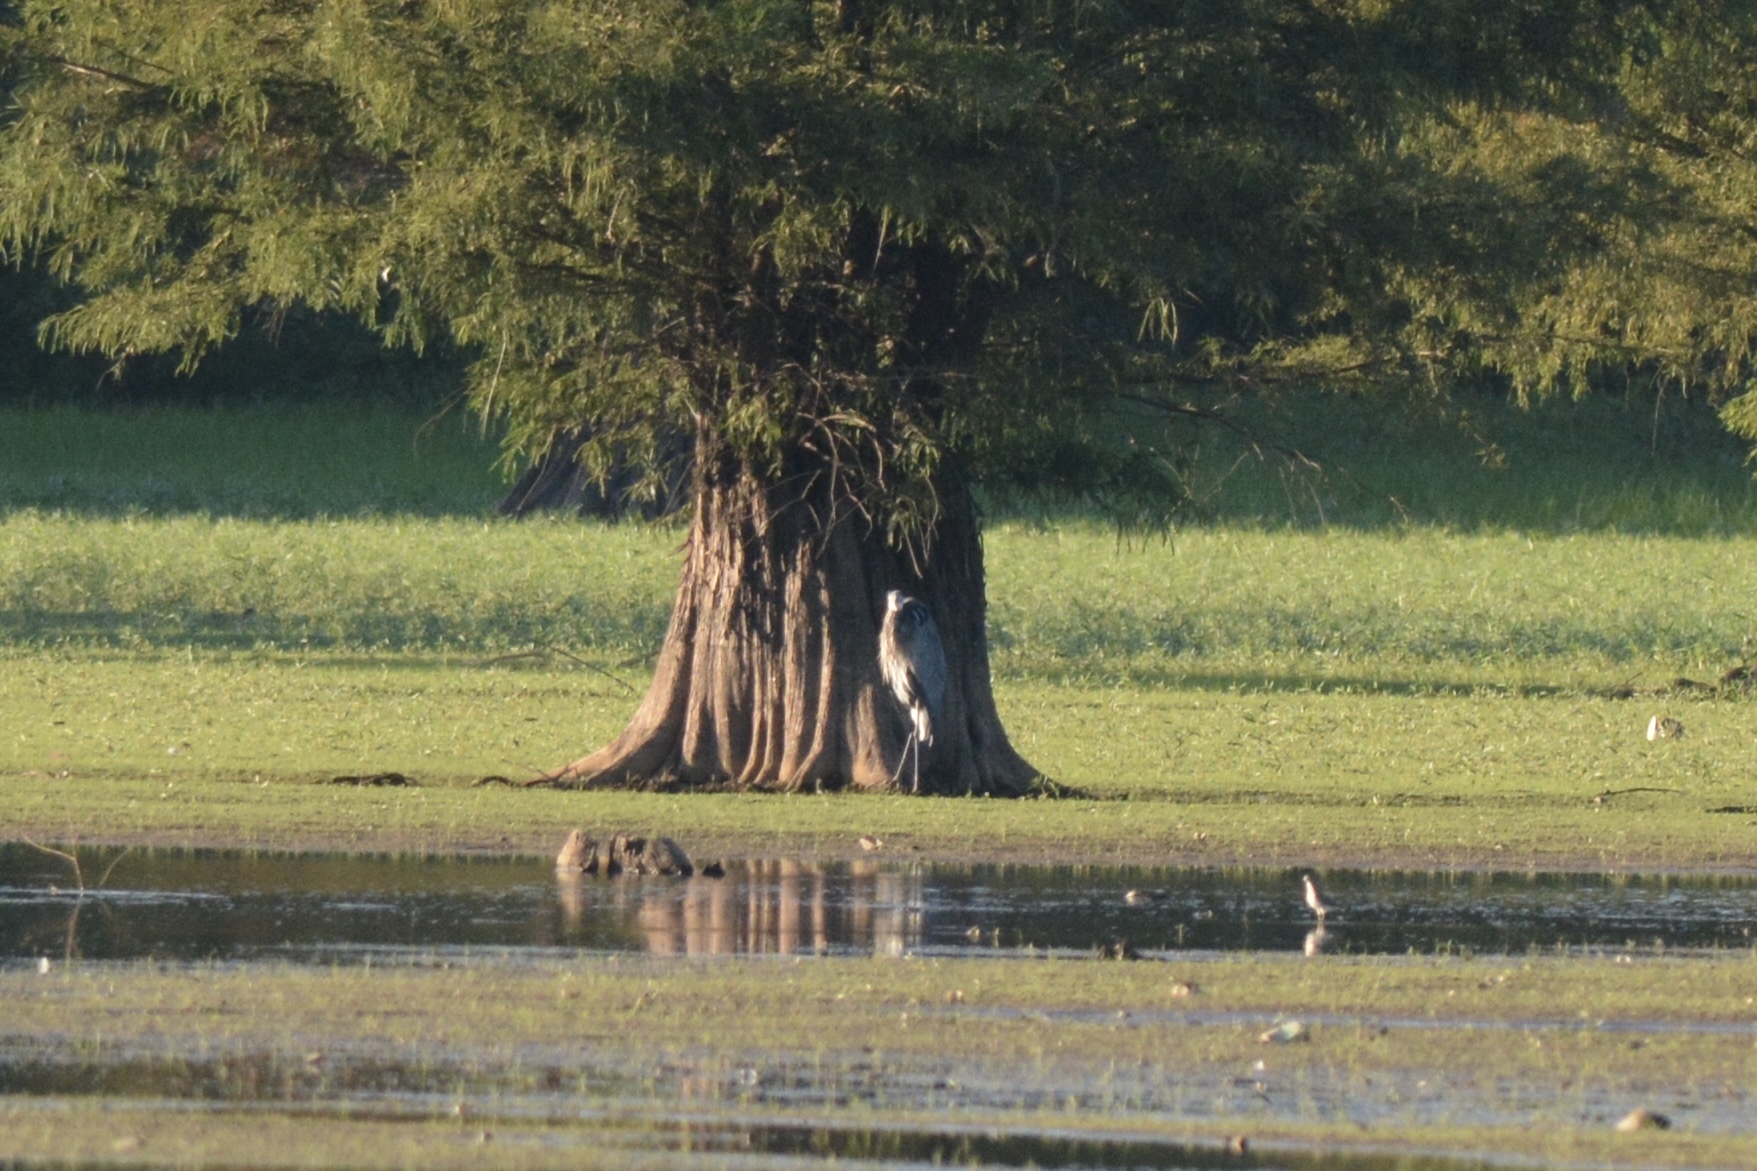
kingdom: Animalia
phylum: Chordata
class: Aves
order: Pelecaniformes
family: Ardeidae
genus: Ardea
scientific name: Ardea herodias
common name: Great blue heron
